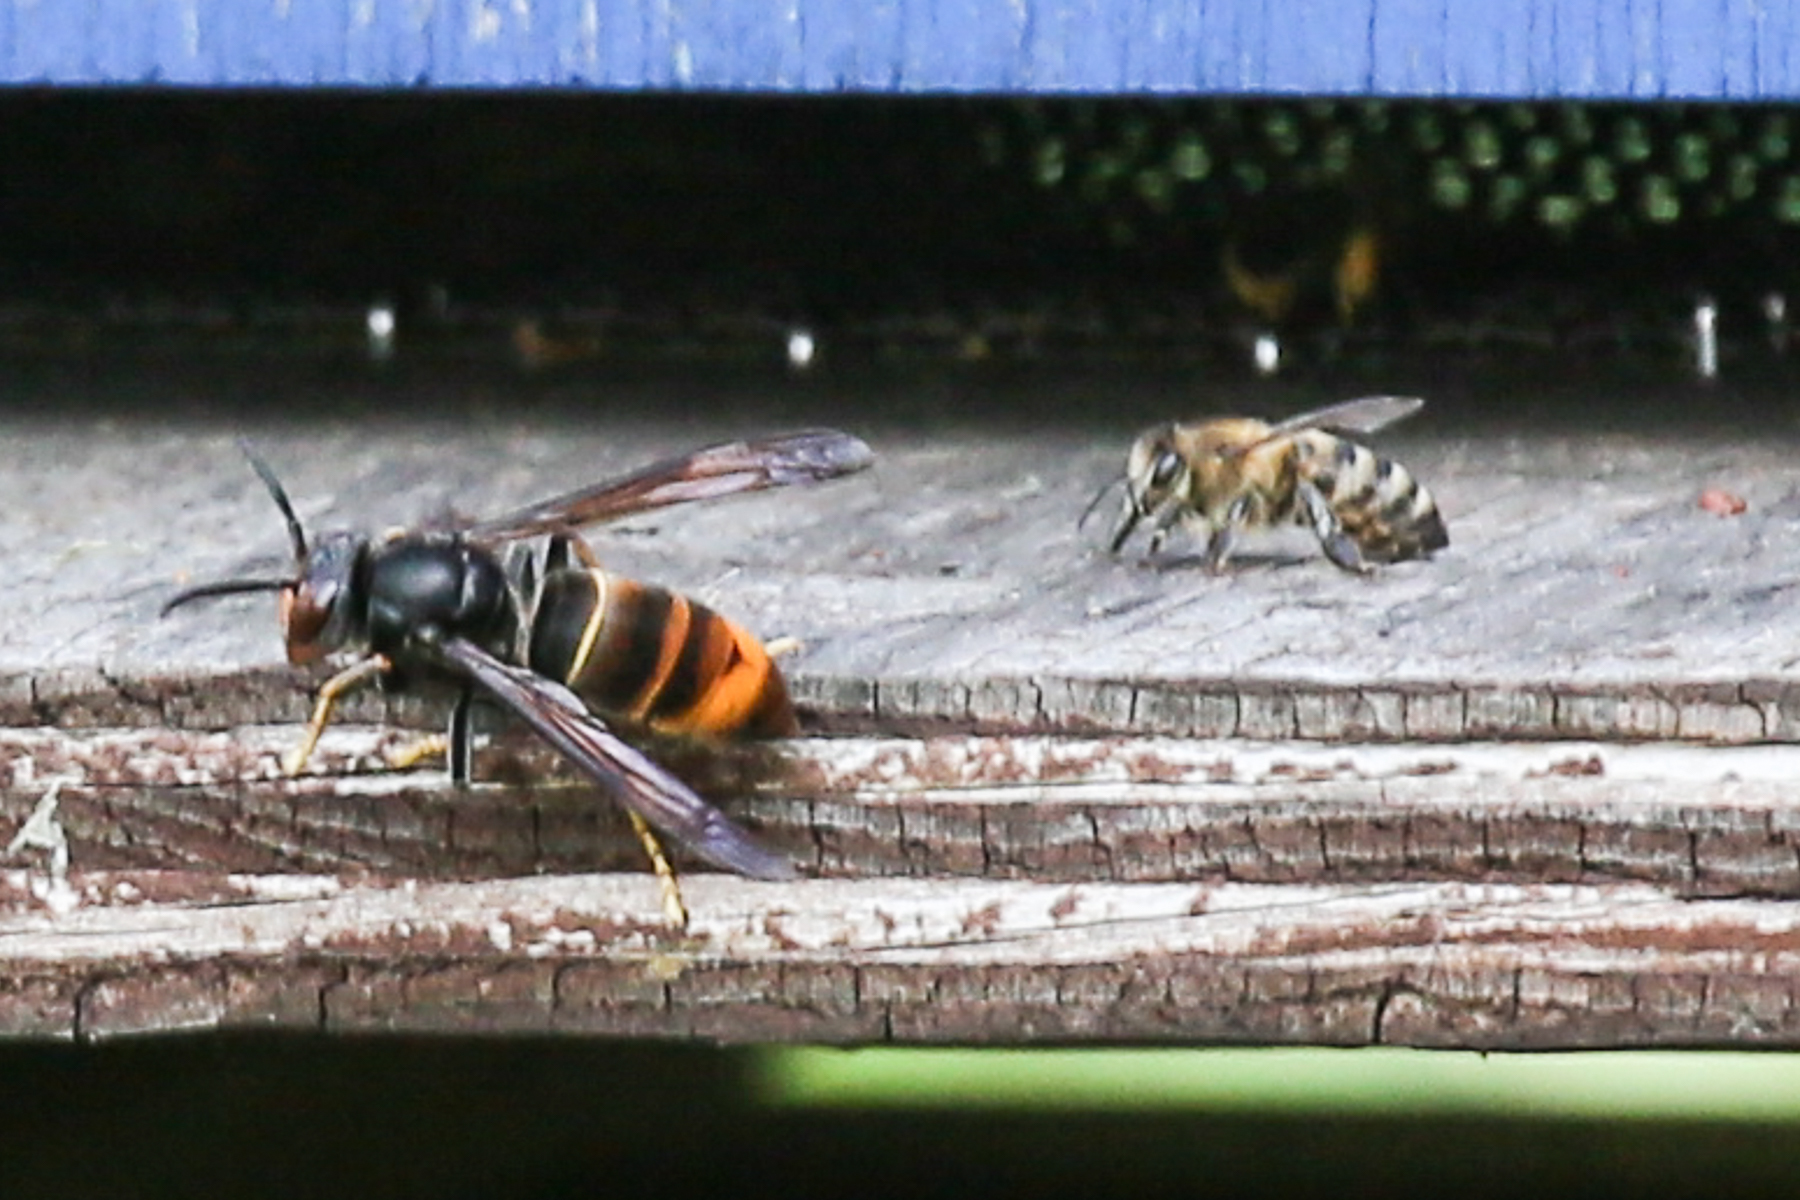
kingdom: Animalia
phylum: Arthropoda
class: Insecta
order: Hymenoptera
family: Vespidae
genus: Vespa
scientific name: Vespa velutina
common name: Asian hornet
